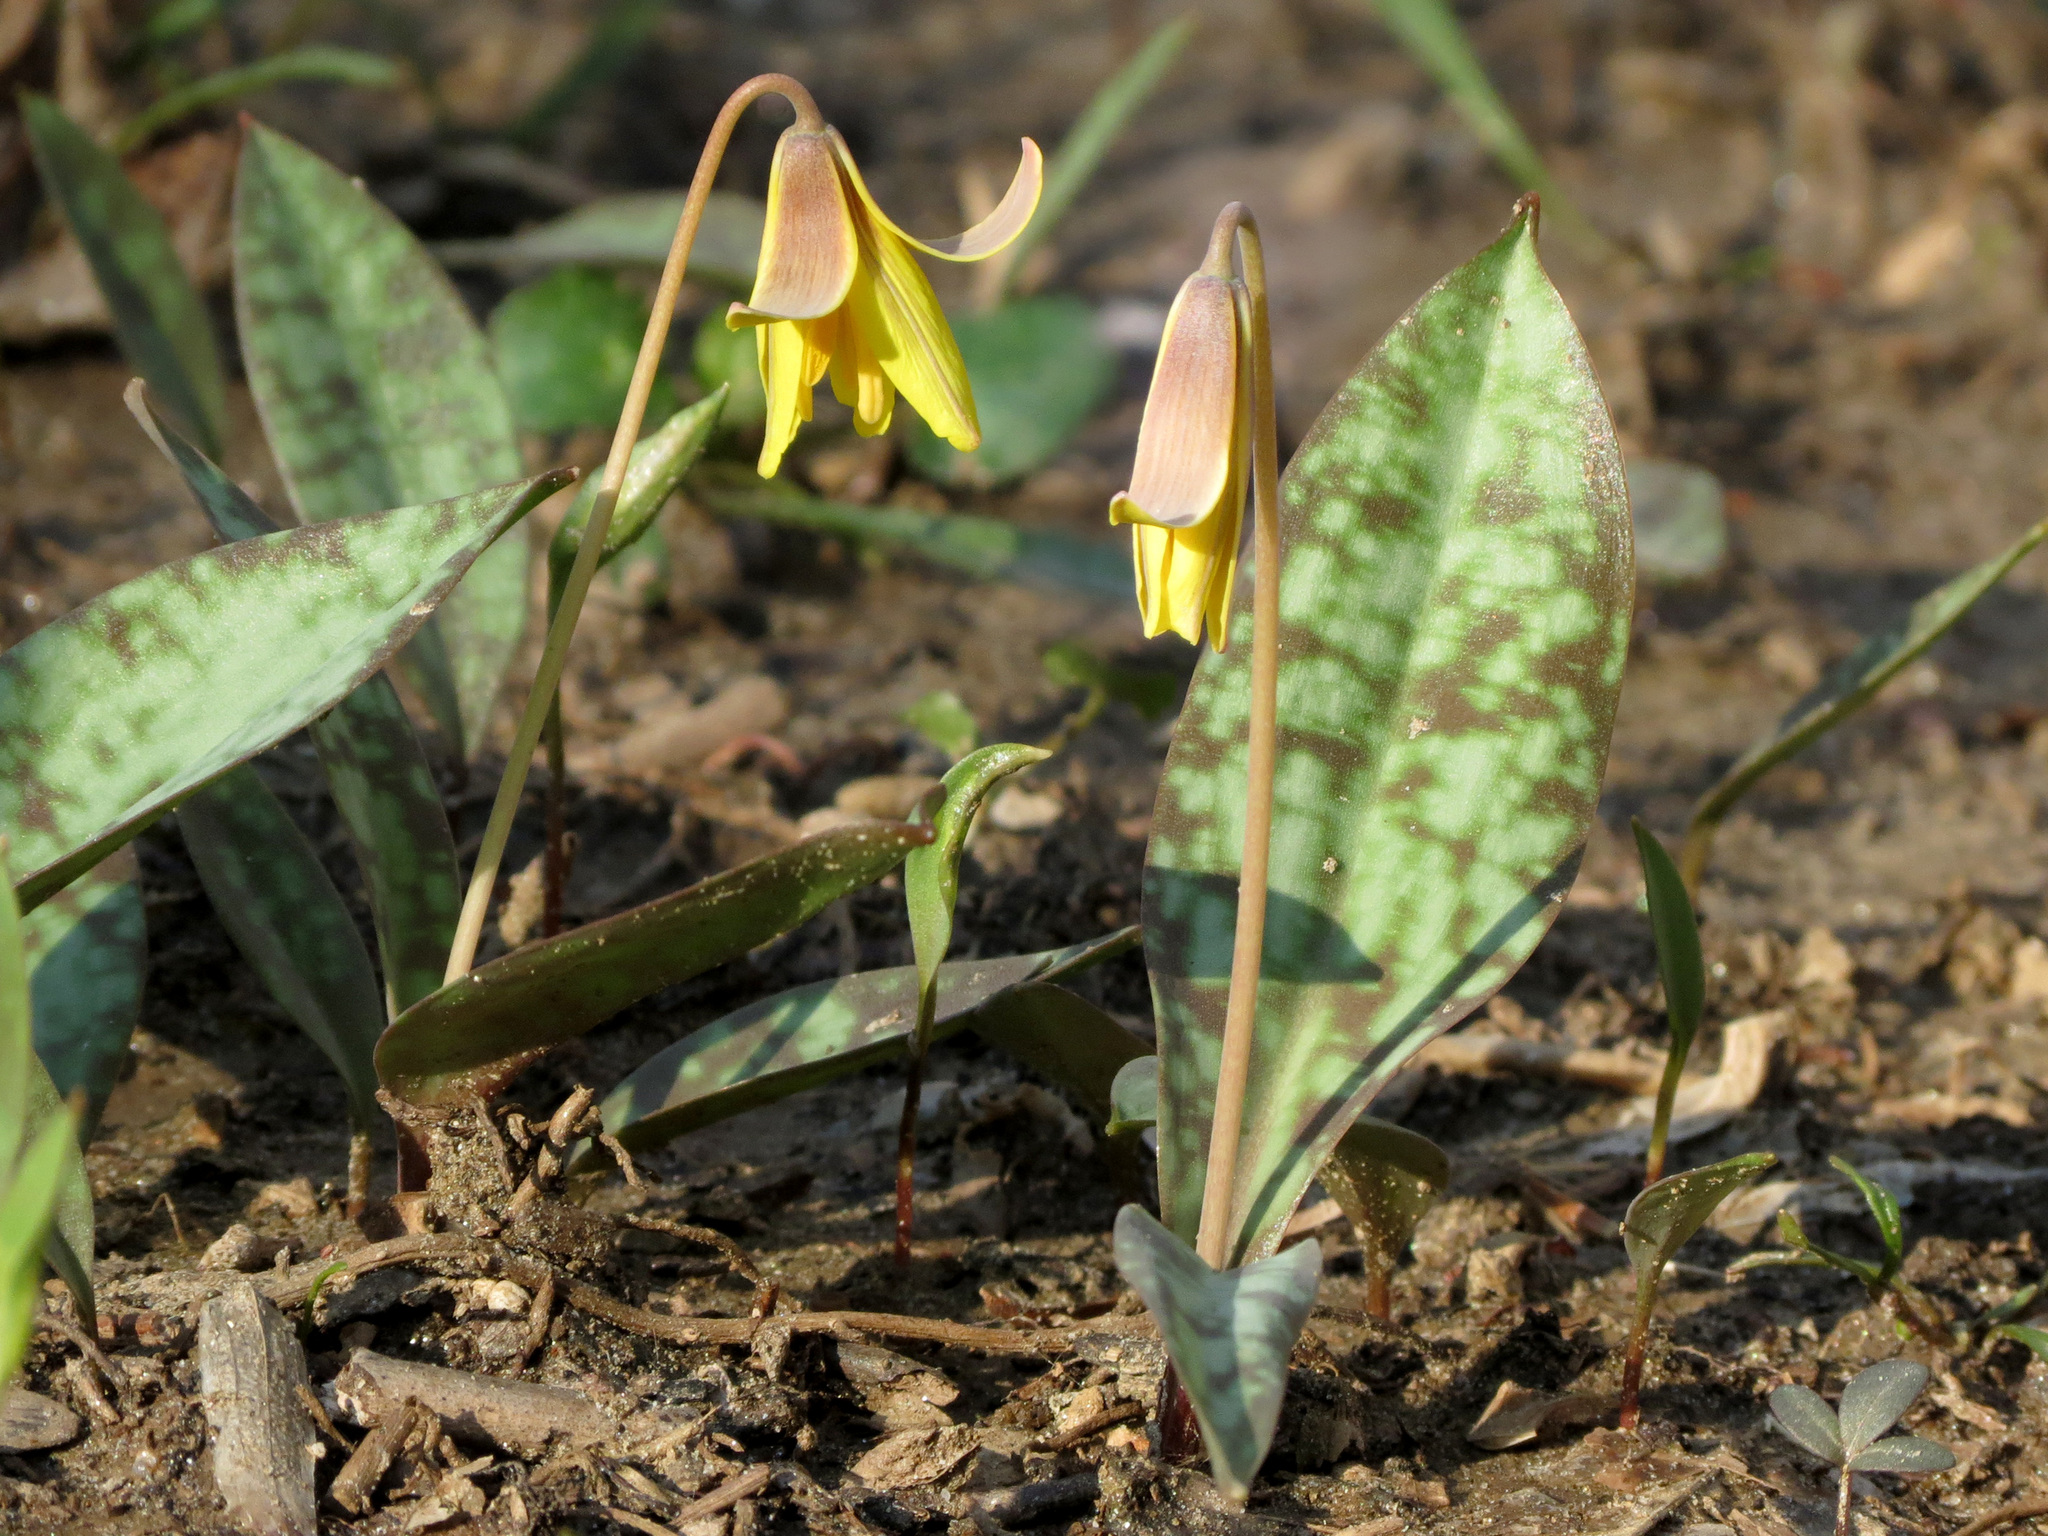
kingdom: Plantae
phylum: Tracheophyta
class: Liliopsida
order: Liliales
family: Liliaceae
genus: Erythronium
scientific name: Erythronium americanum
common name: Yellow adder's-tongue
